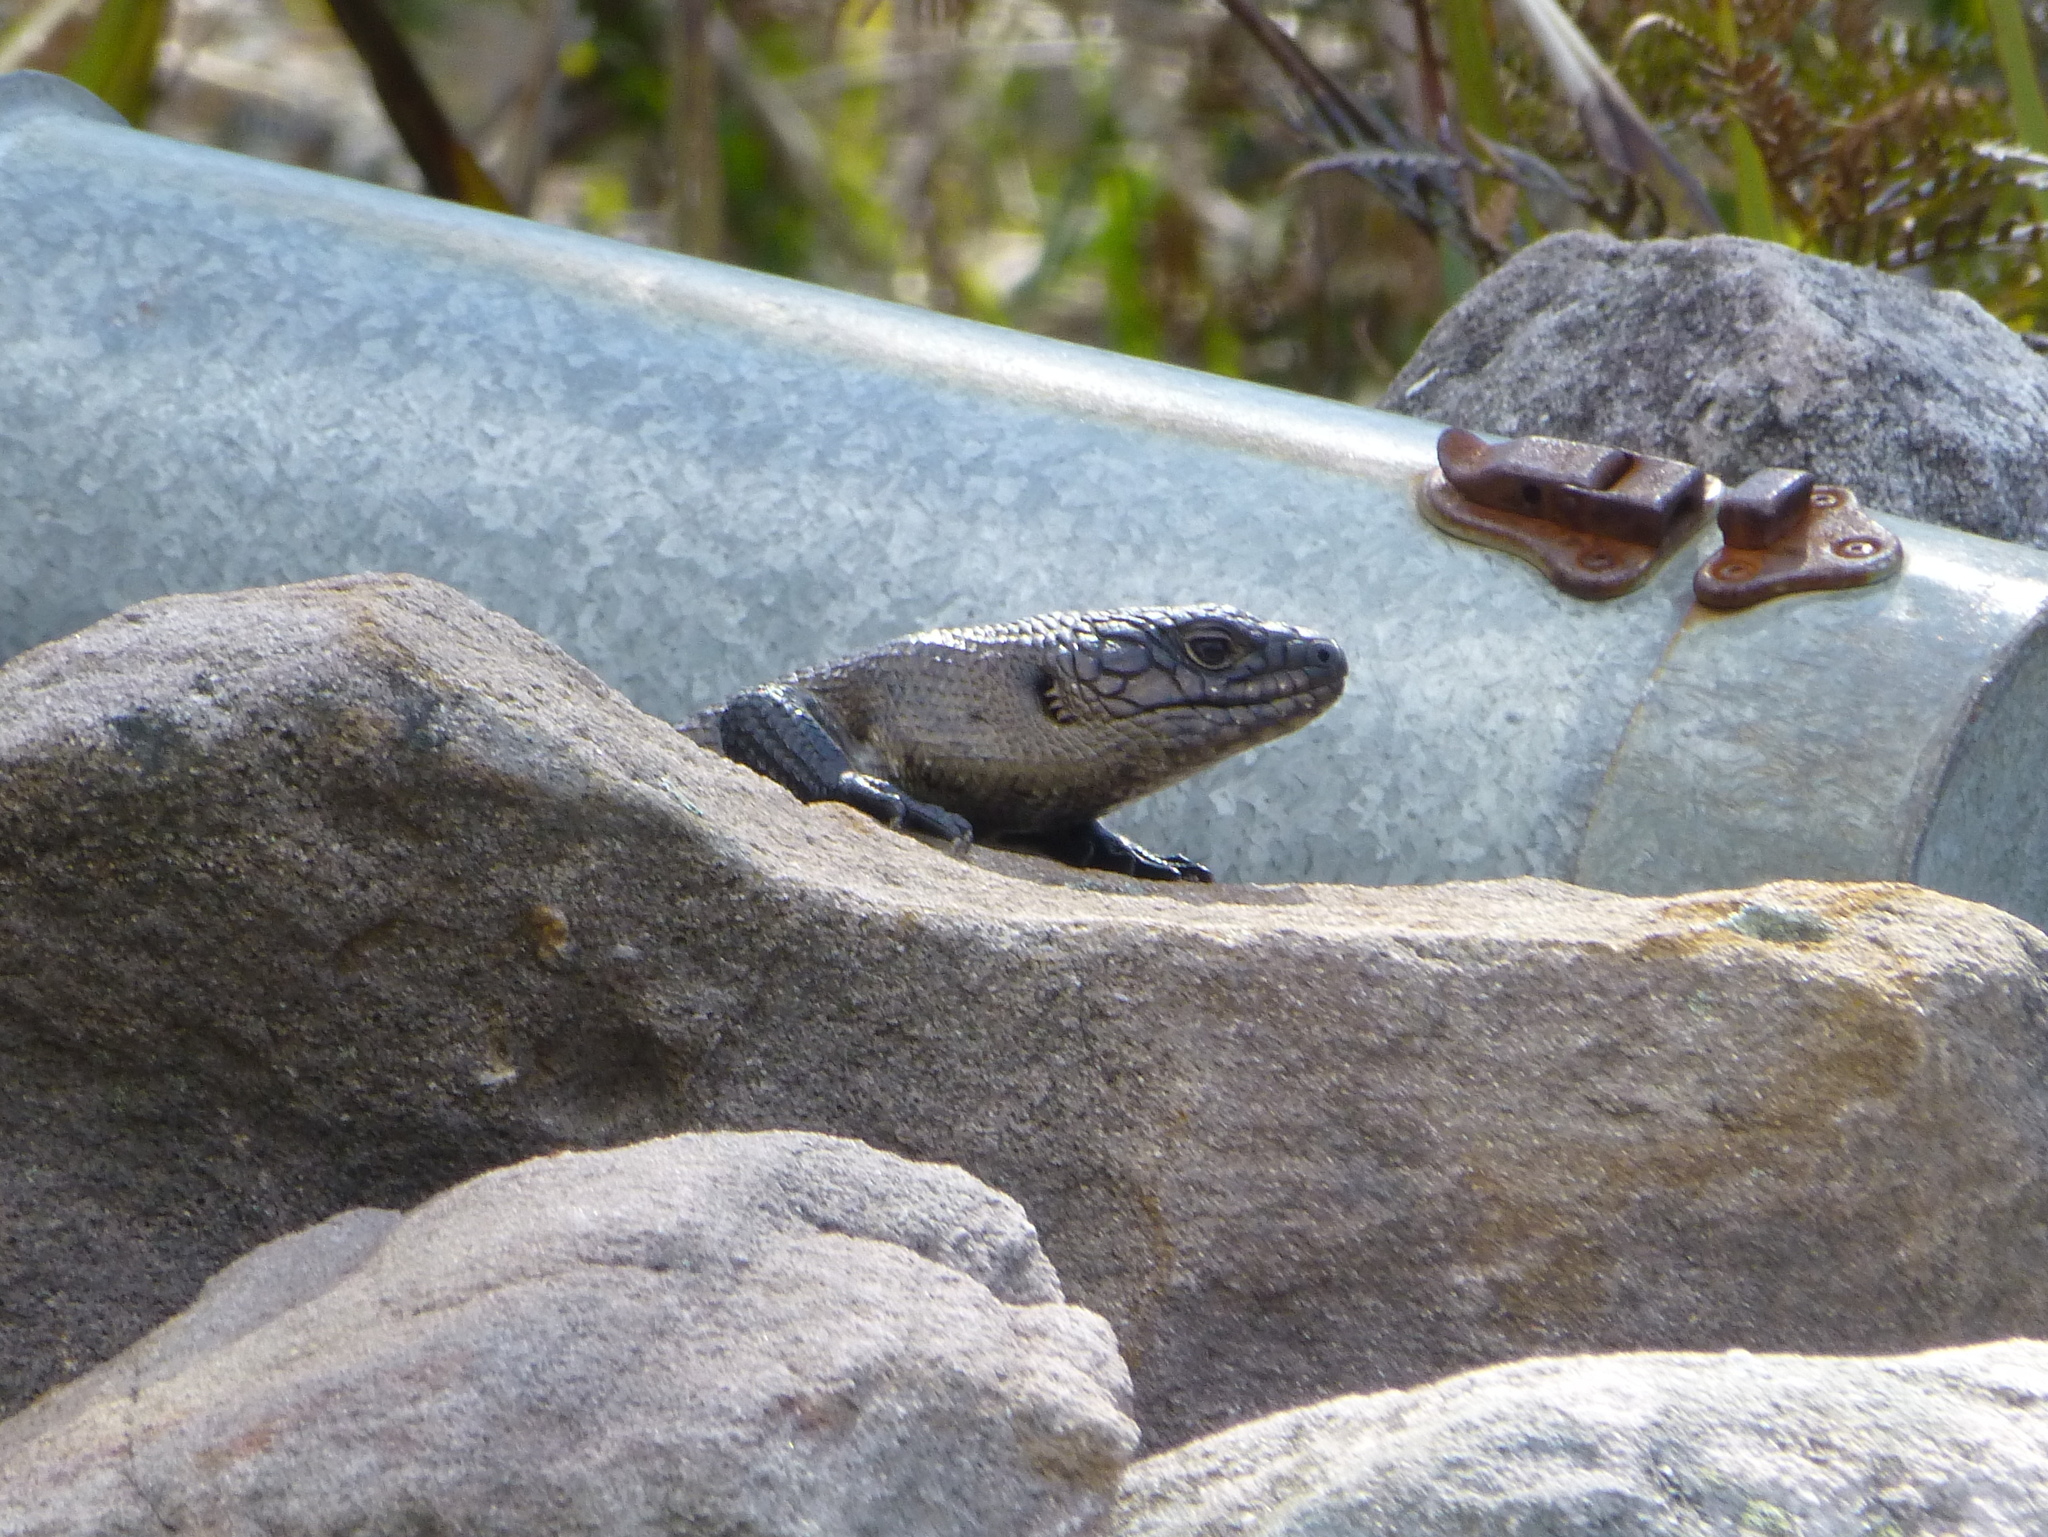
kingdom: Animalia
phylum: Chordata
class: Squamata
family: Scincidae
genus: Egernia
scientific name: Egernia cunninghami
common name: Cunningham's skink
